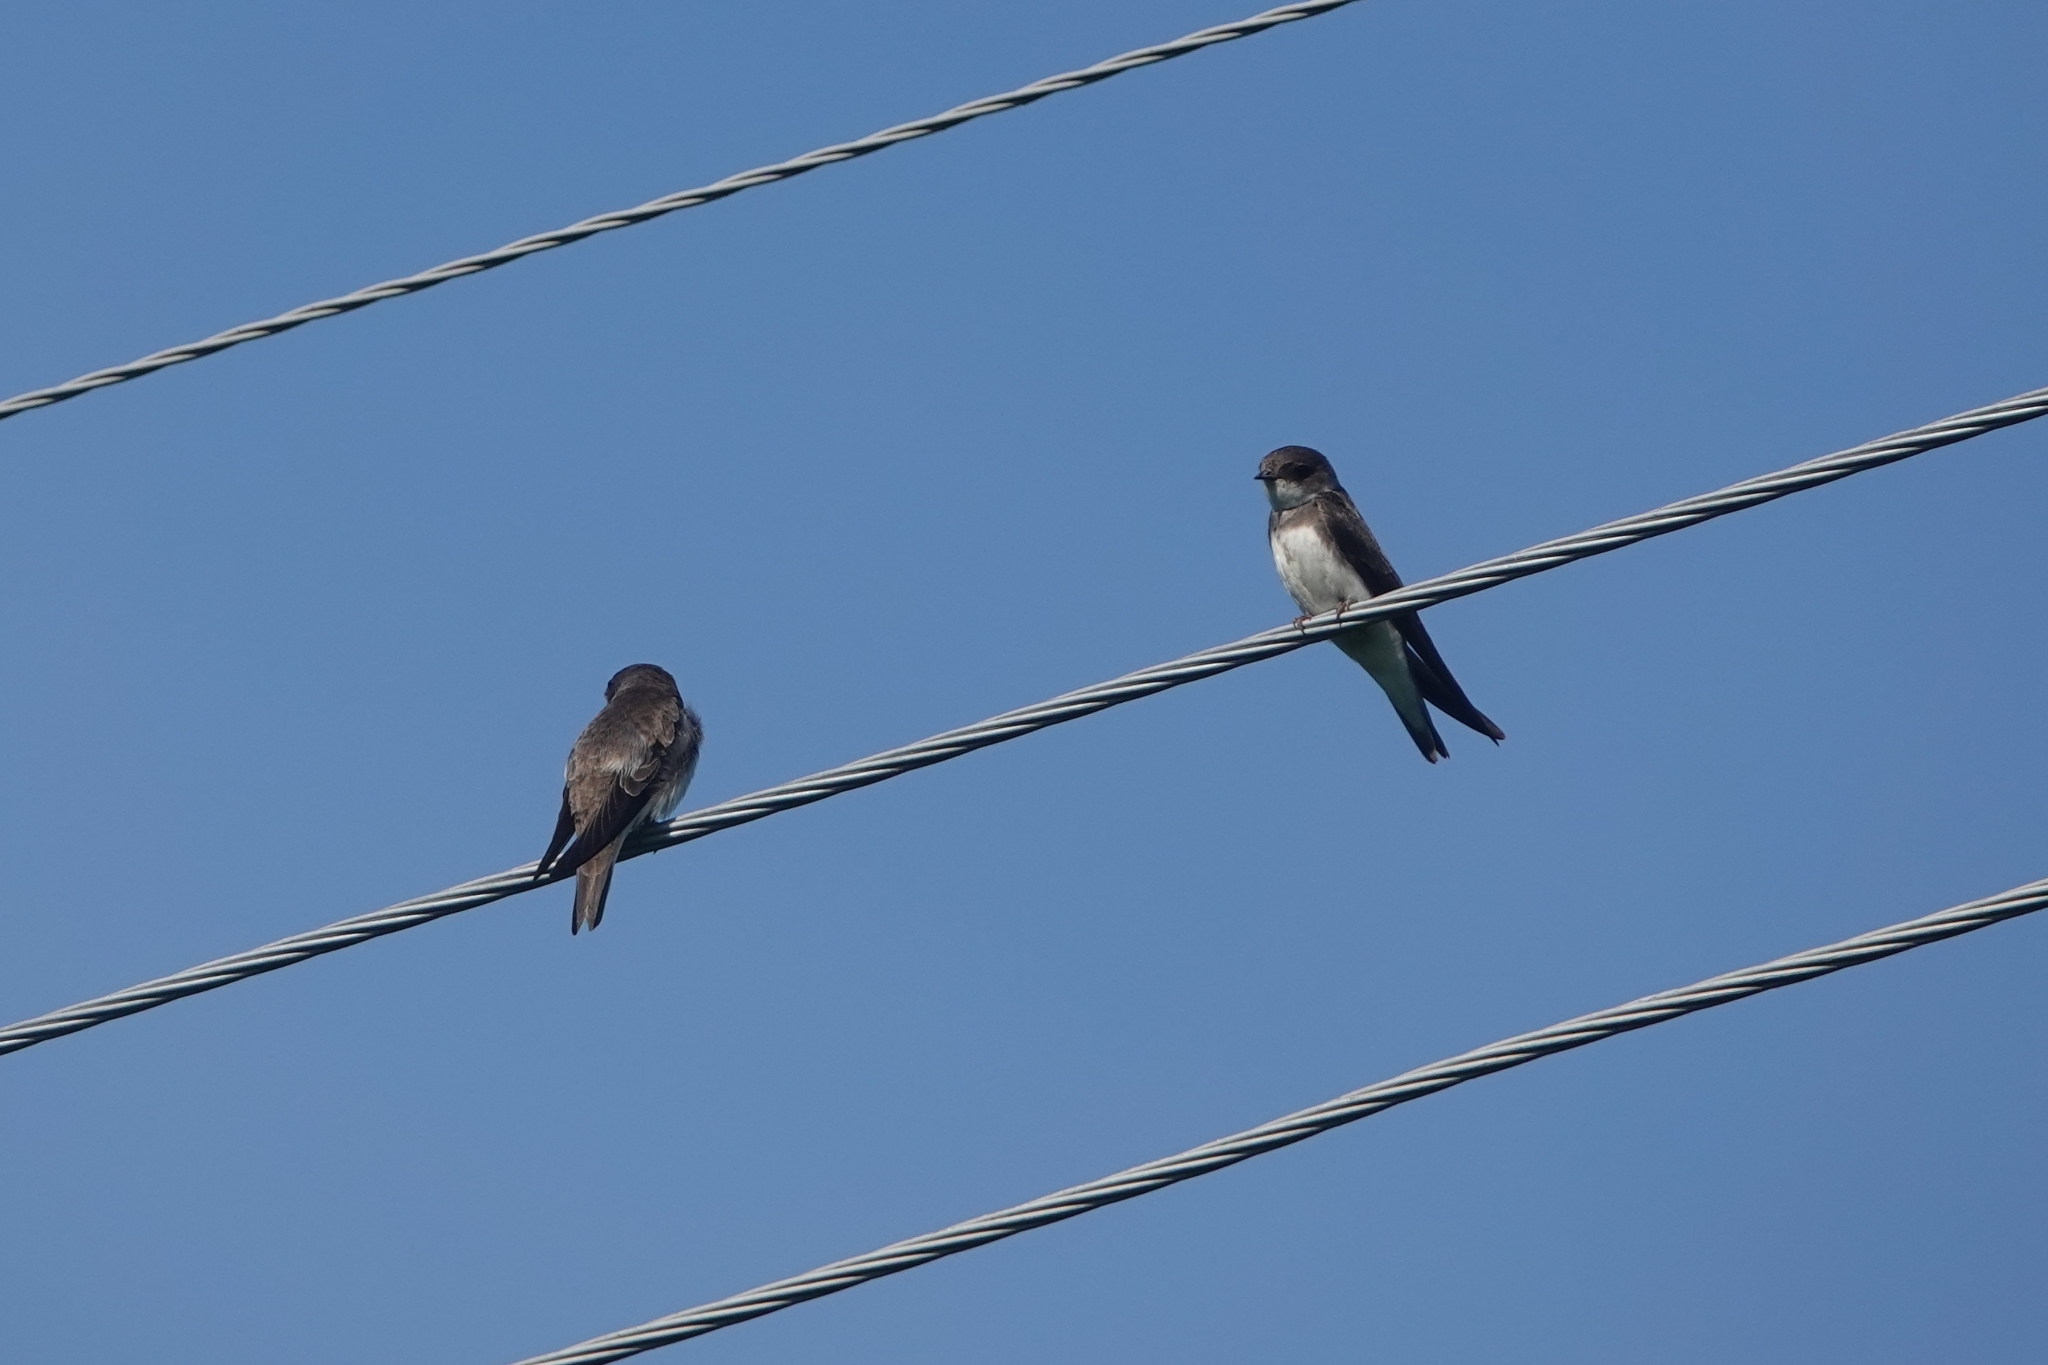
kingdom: Animalia
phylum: Chordata
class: Aves
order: Passeriformes
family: Hirundinidae
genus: Riparia
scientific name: Riparia riparia
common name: Sand martin
